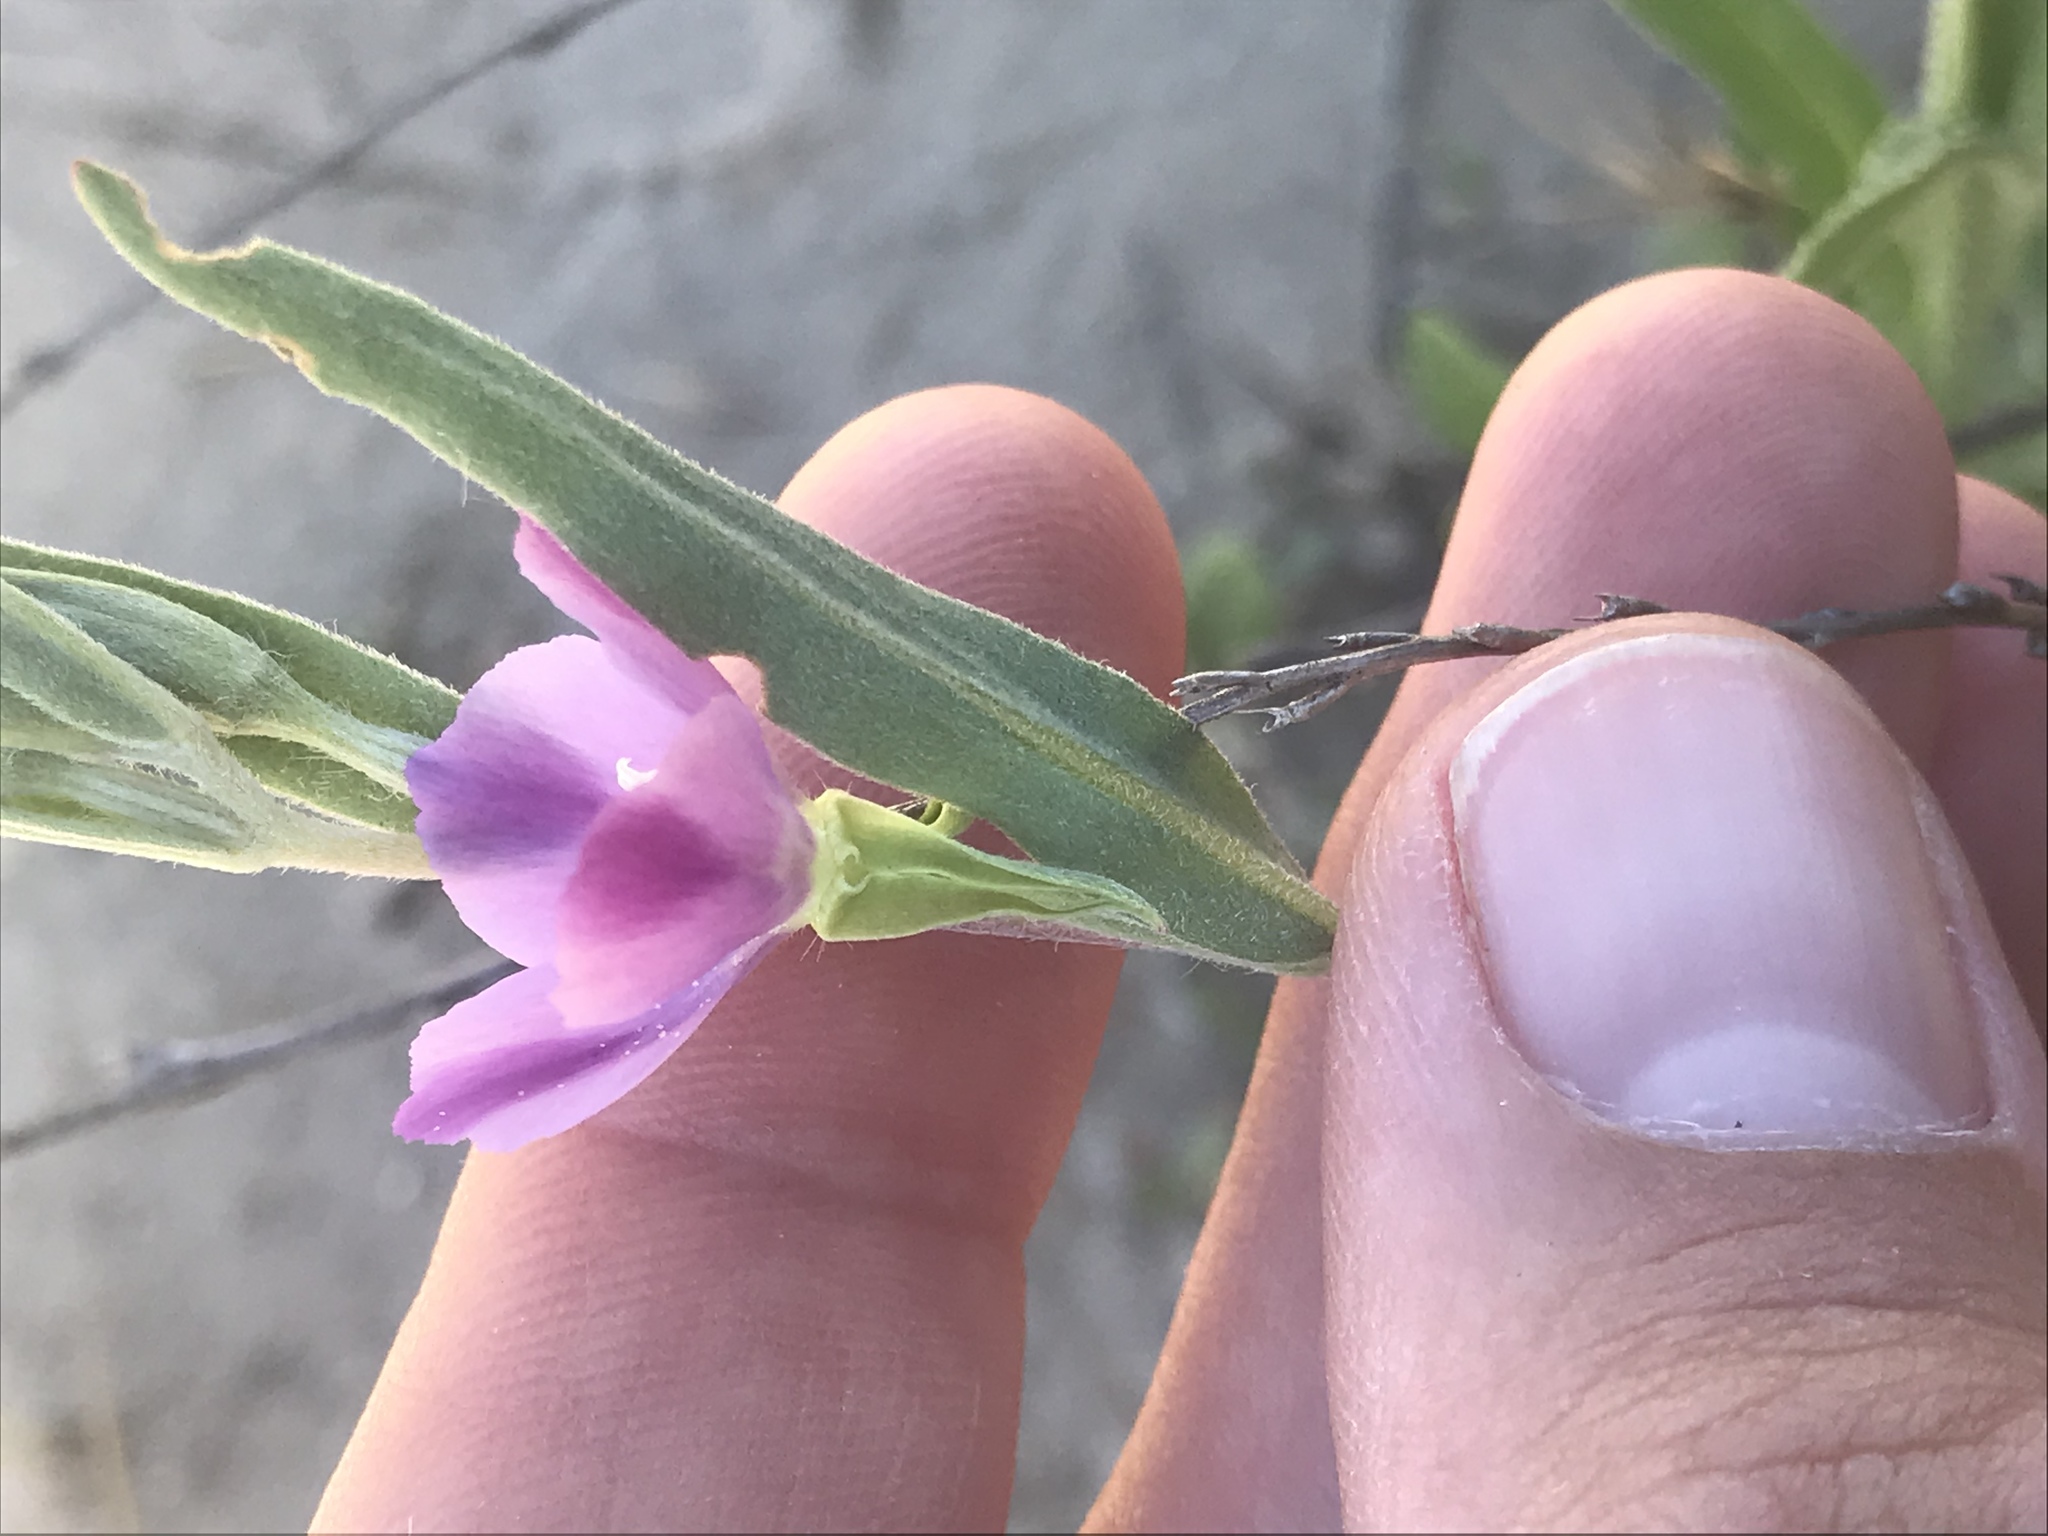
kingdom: Plantae
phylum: Tracheophyta
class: Magnoliopsida
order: Myrtales
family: Onagraceae
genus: Clarkia
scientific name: Clarkia purpurea
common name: Purple clarkia
